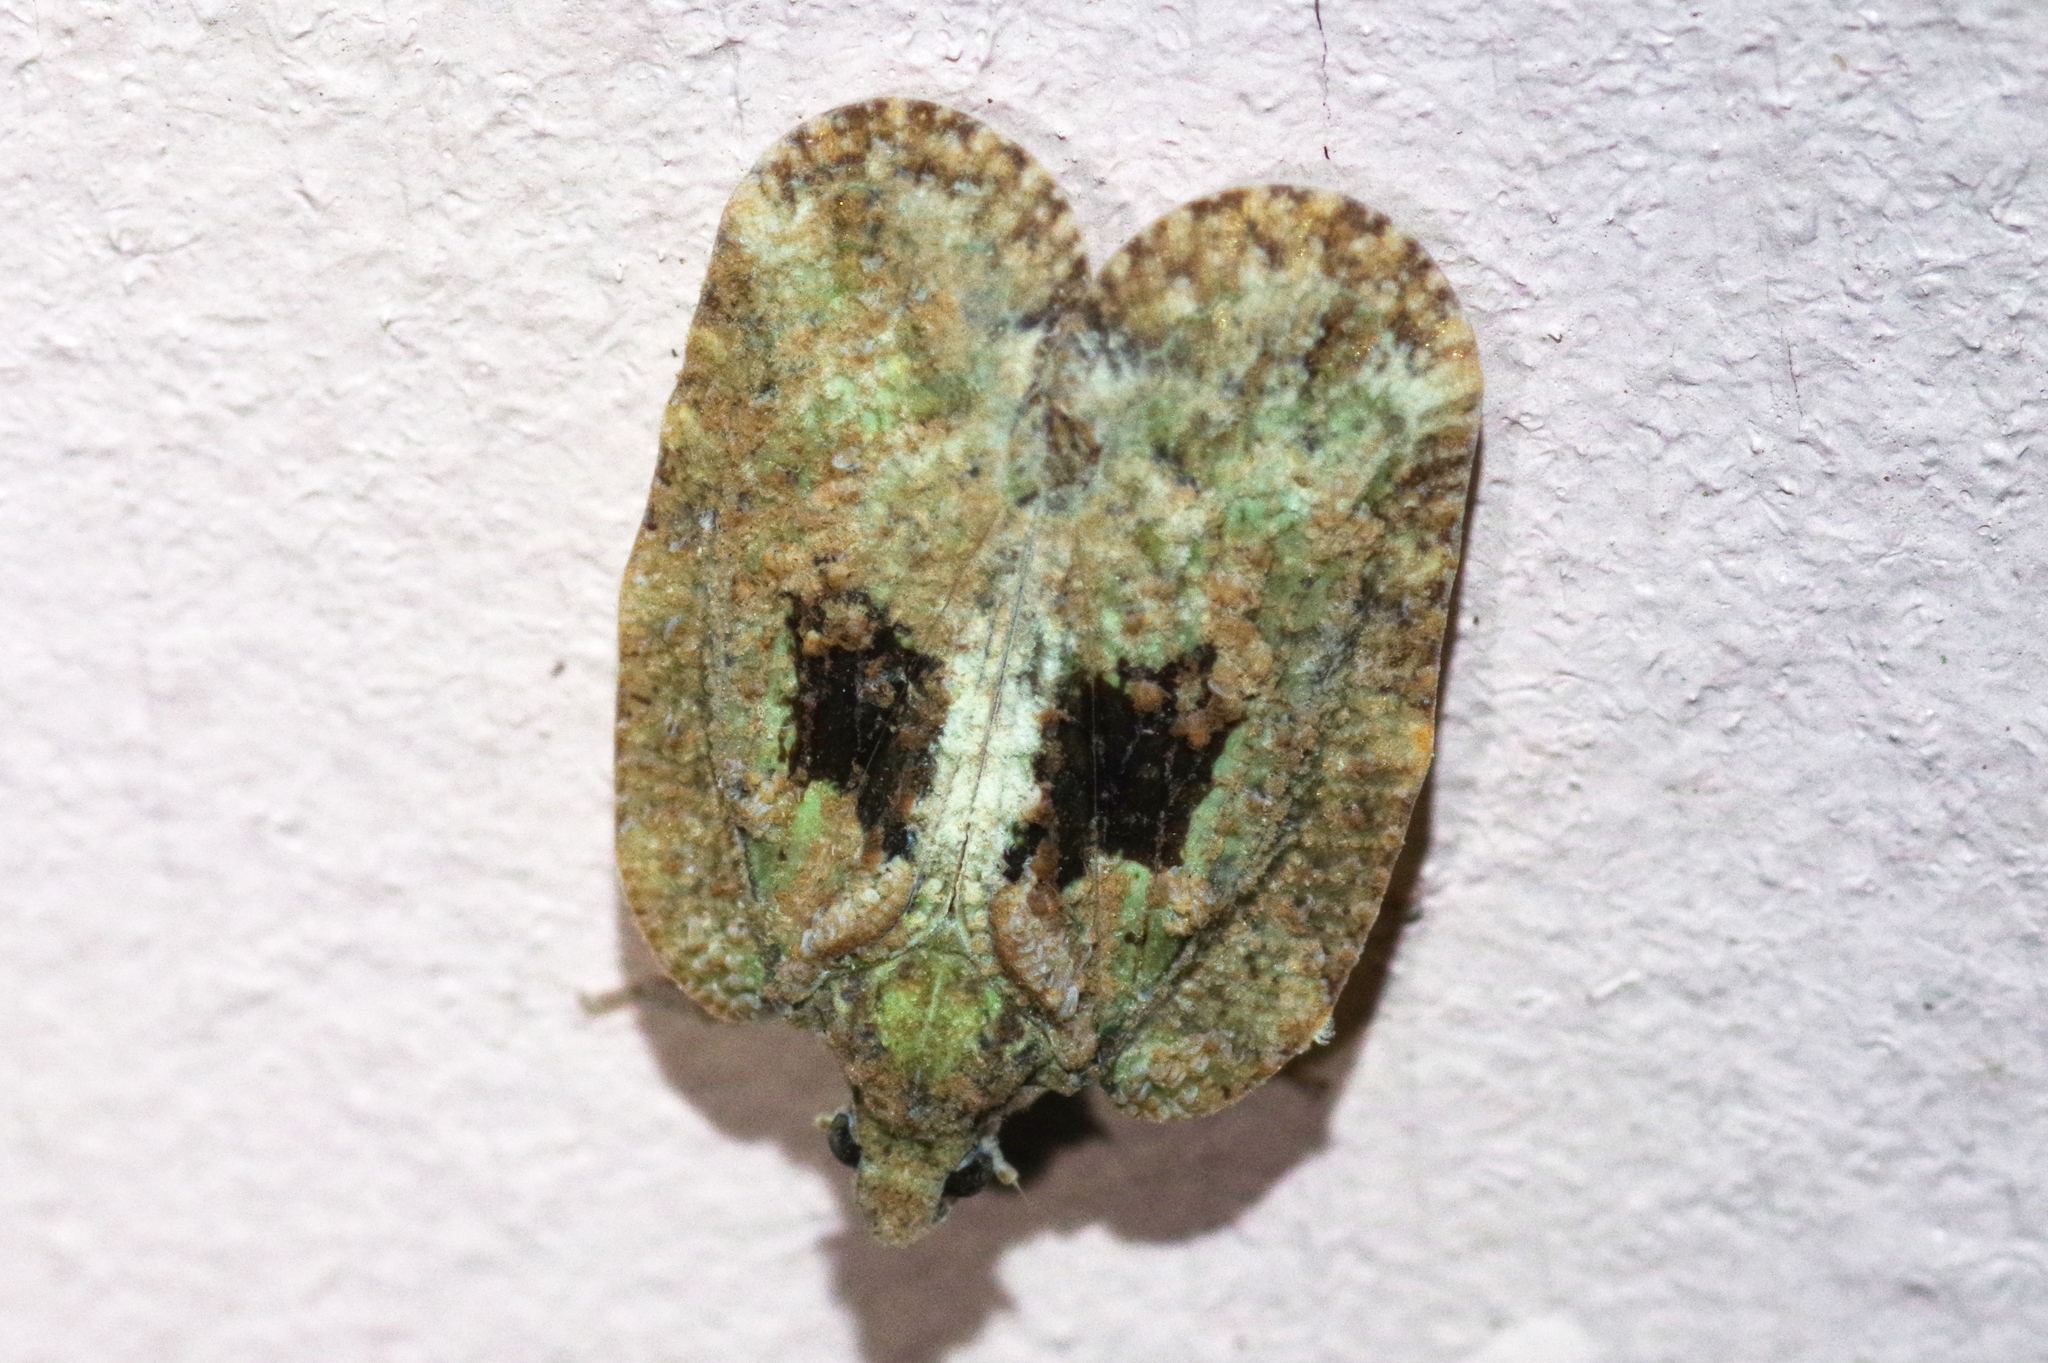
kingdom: Animalia
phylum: Arthropoda
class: Insecta
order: Hemiptera
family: Flatidae
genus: Atracis
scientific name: Atracis mucida
